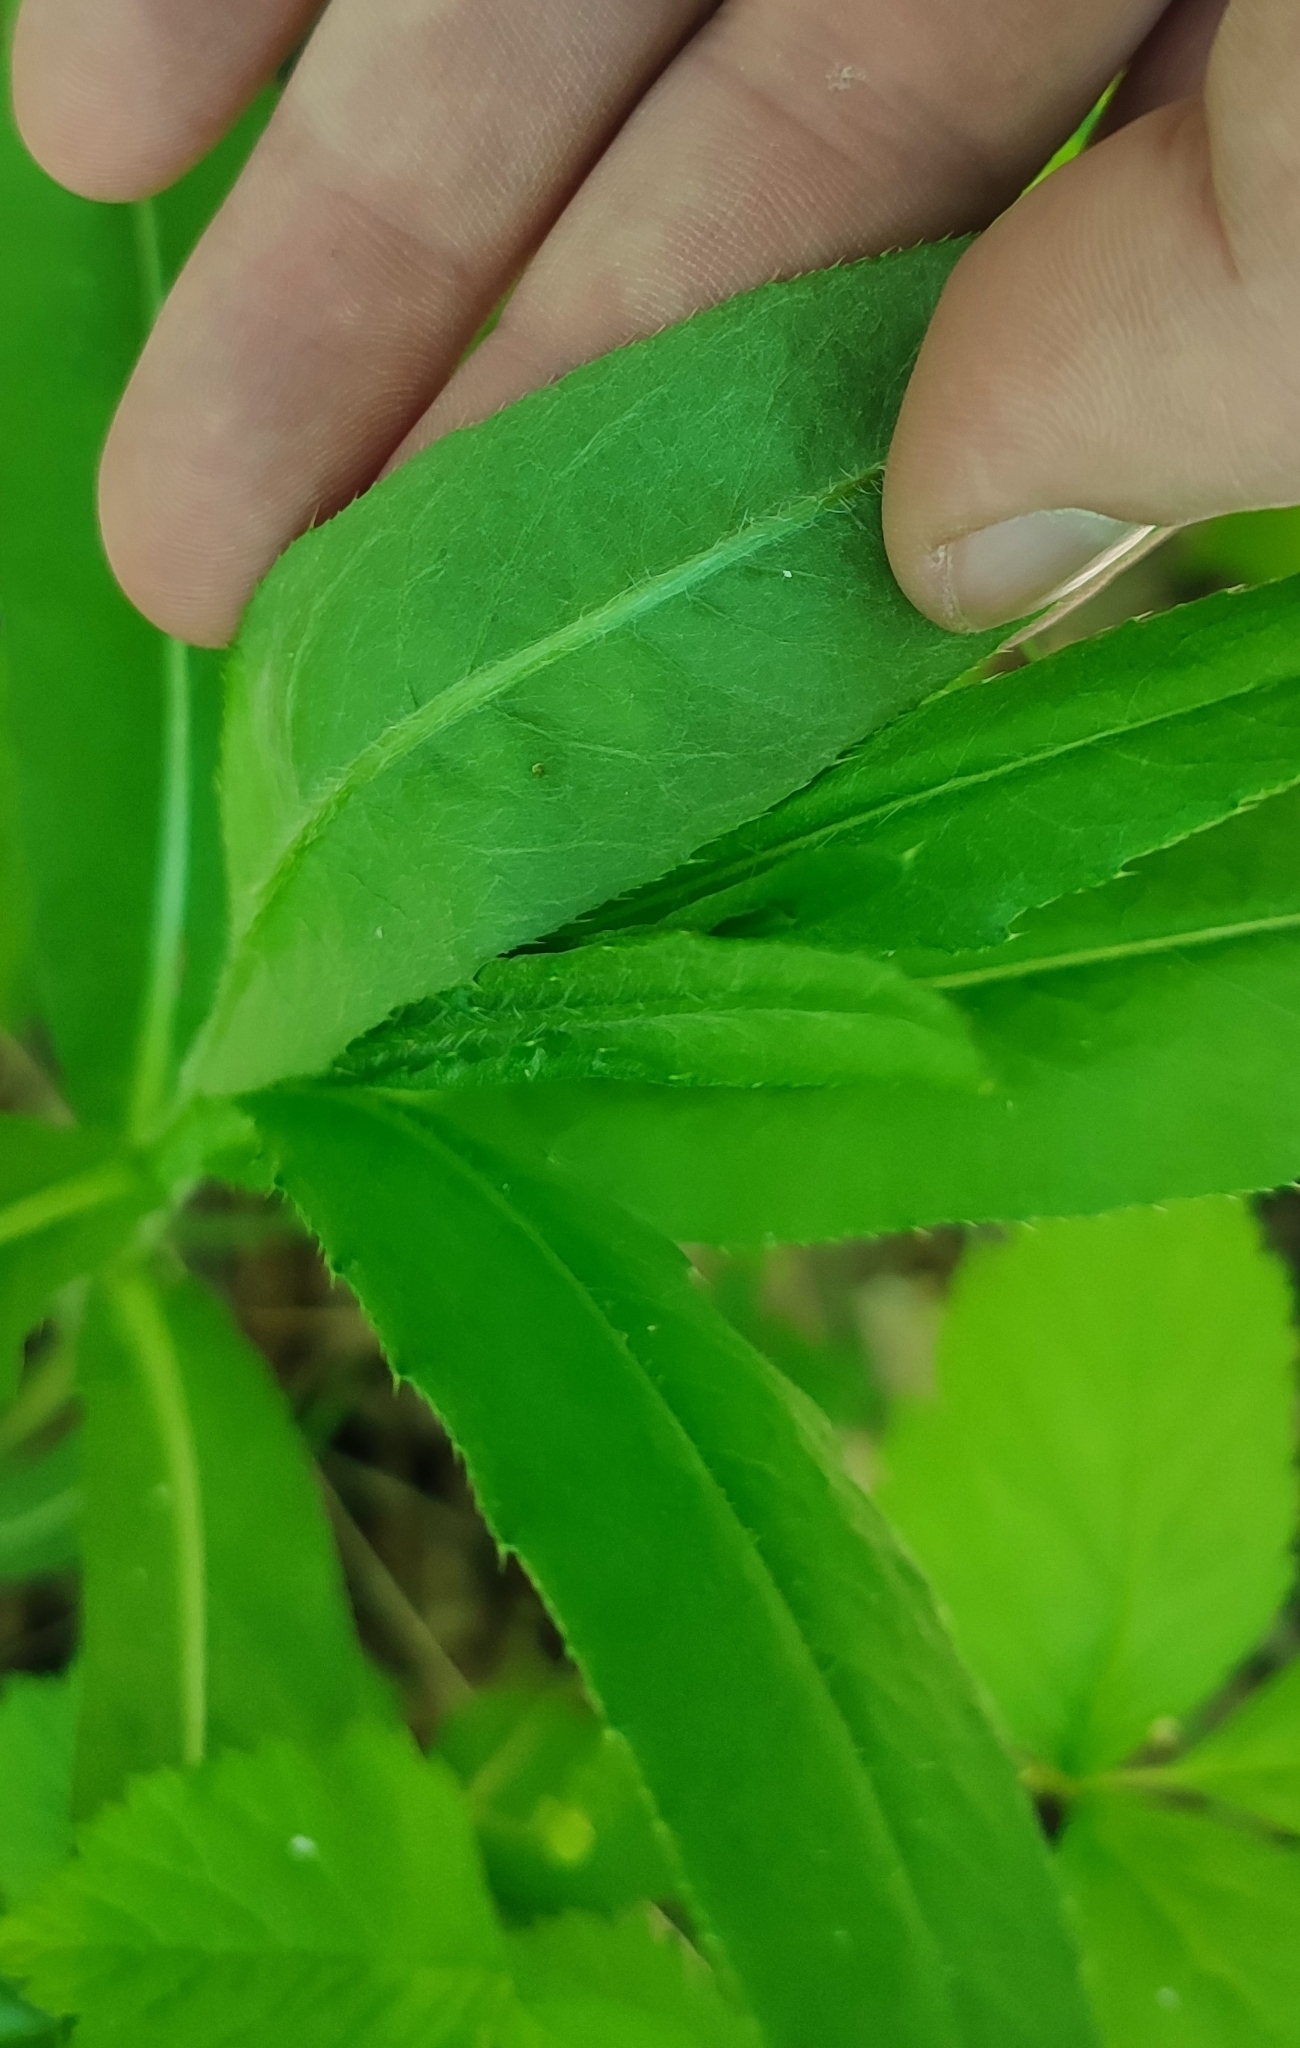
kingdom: Plantae
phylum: Tracheophyta
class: Magnoliopsida
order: Asterales
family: Asteraceae
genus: Cirsium
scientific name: Cirsium arvense
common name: Creeping thistle
